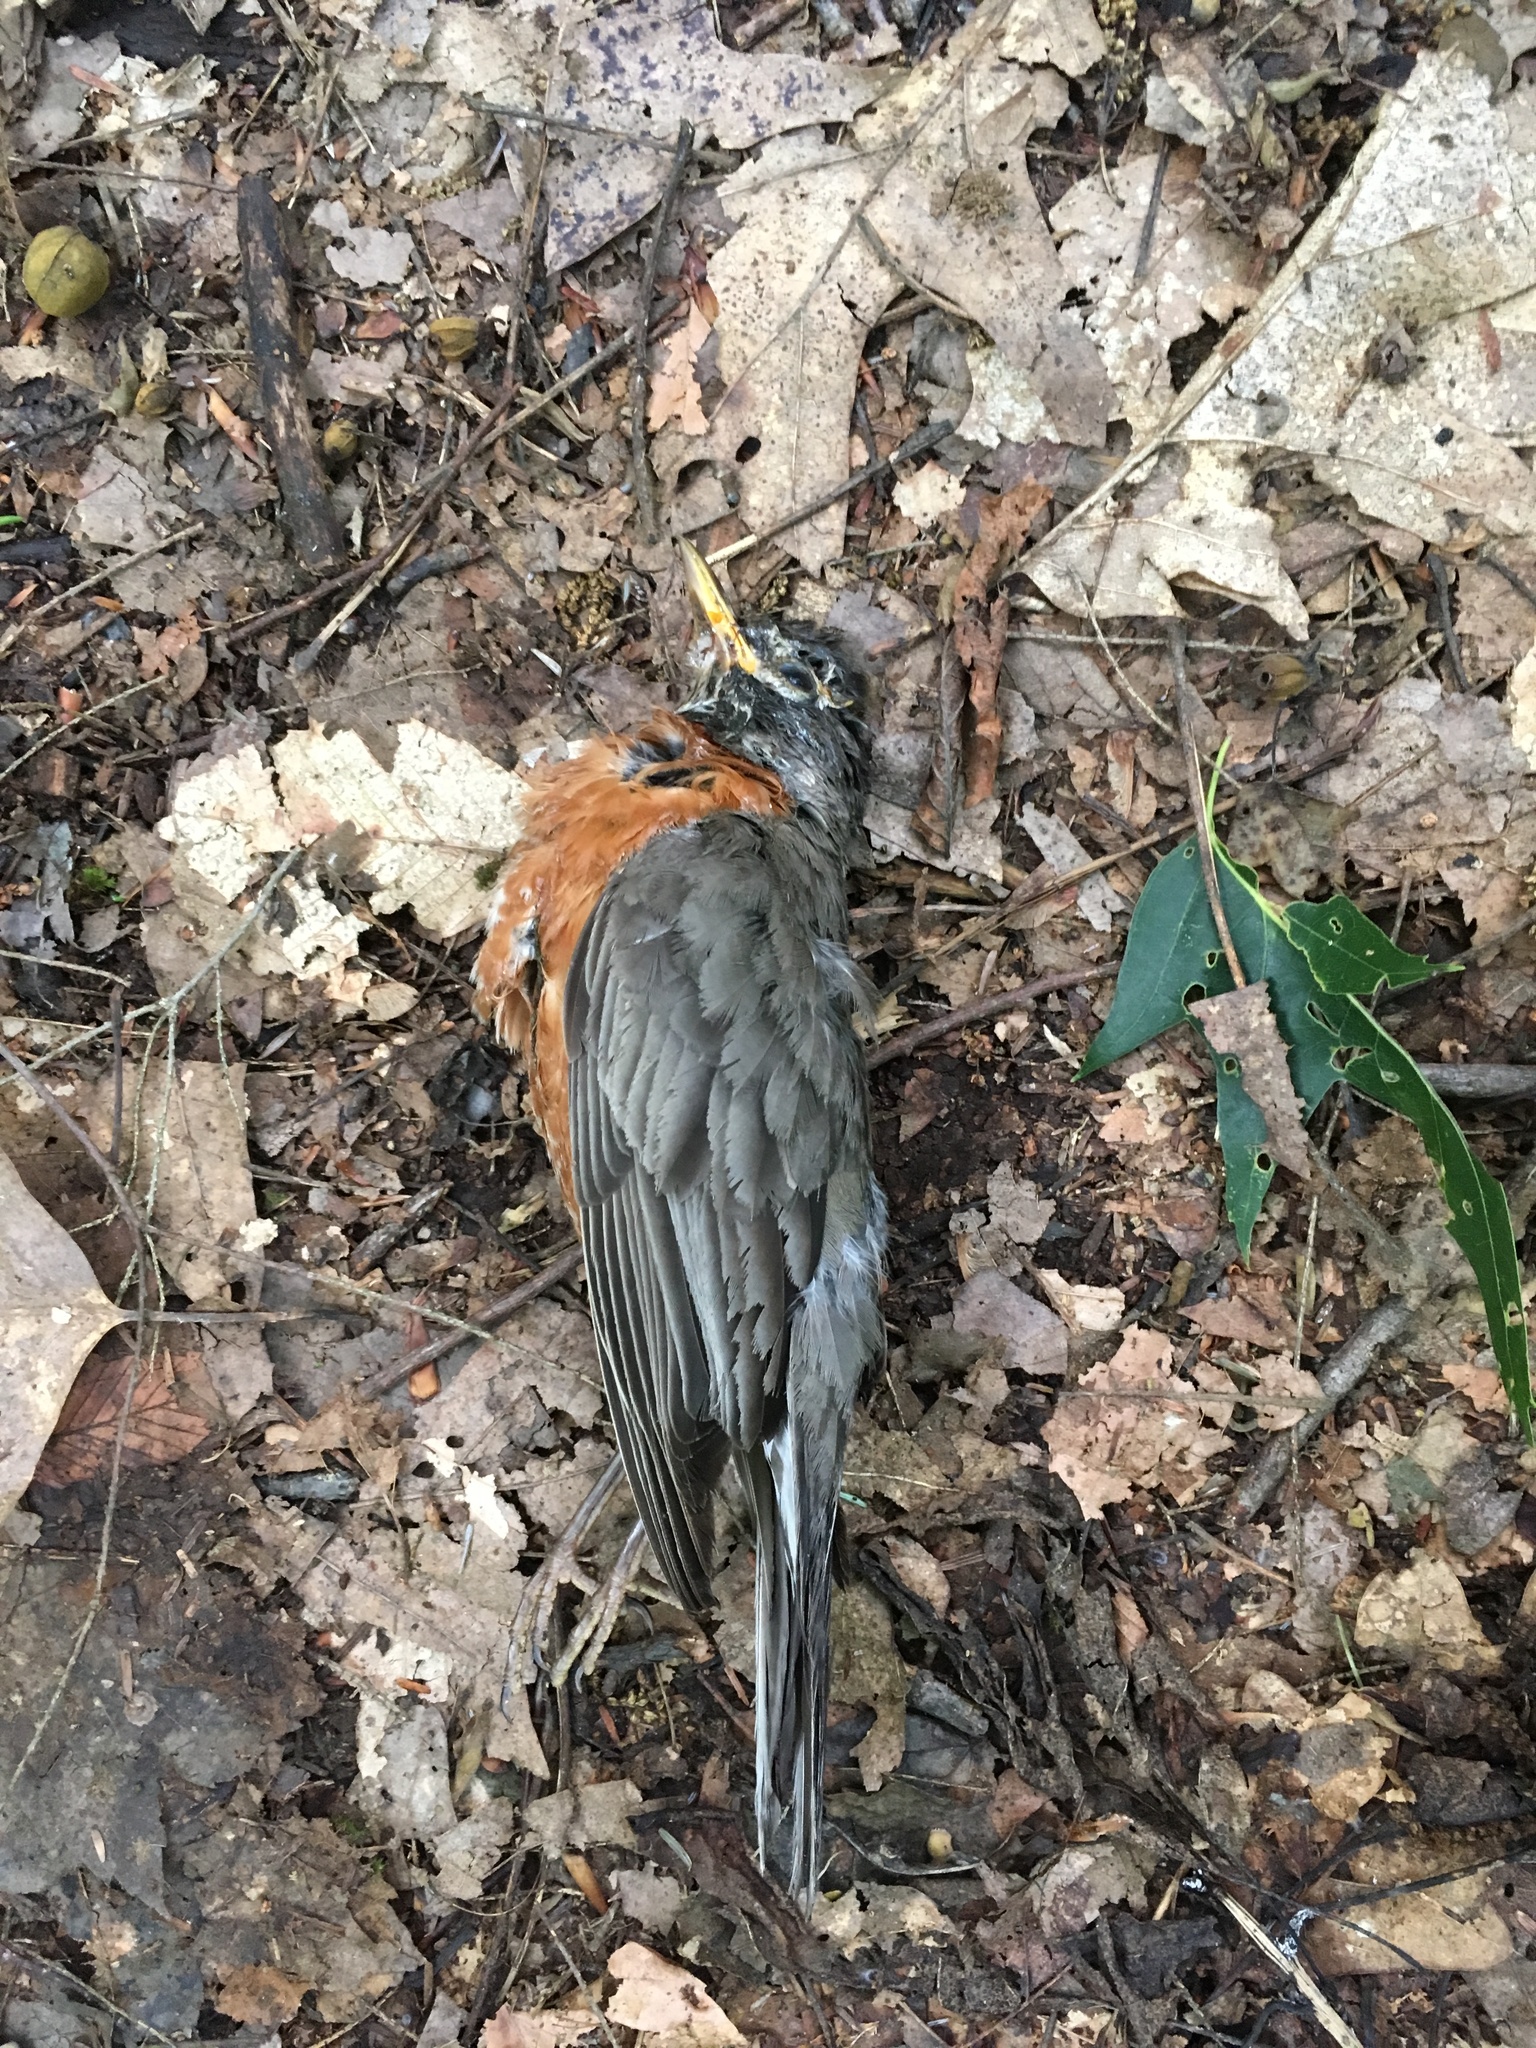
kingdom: Animalia
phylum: Chordata
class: Aves
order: Passeriformes
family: Turdidae
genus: Turdus
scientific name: Turdus migratorius
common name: American robin
